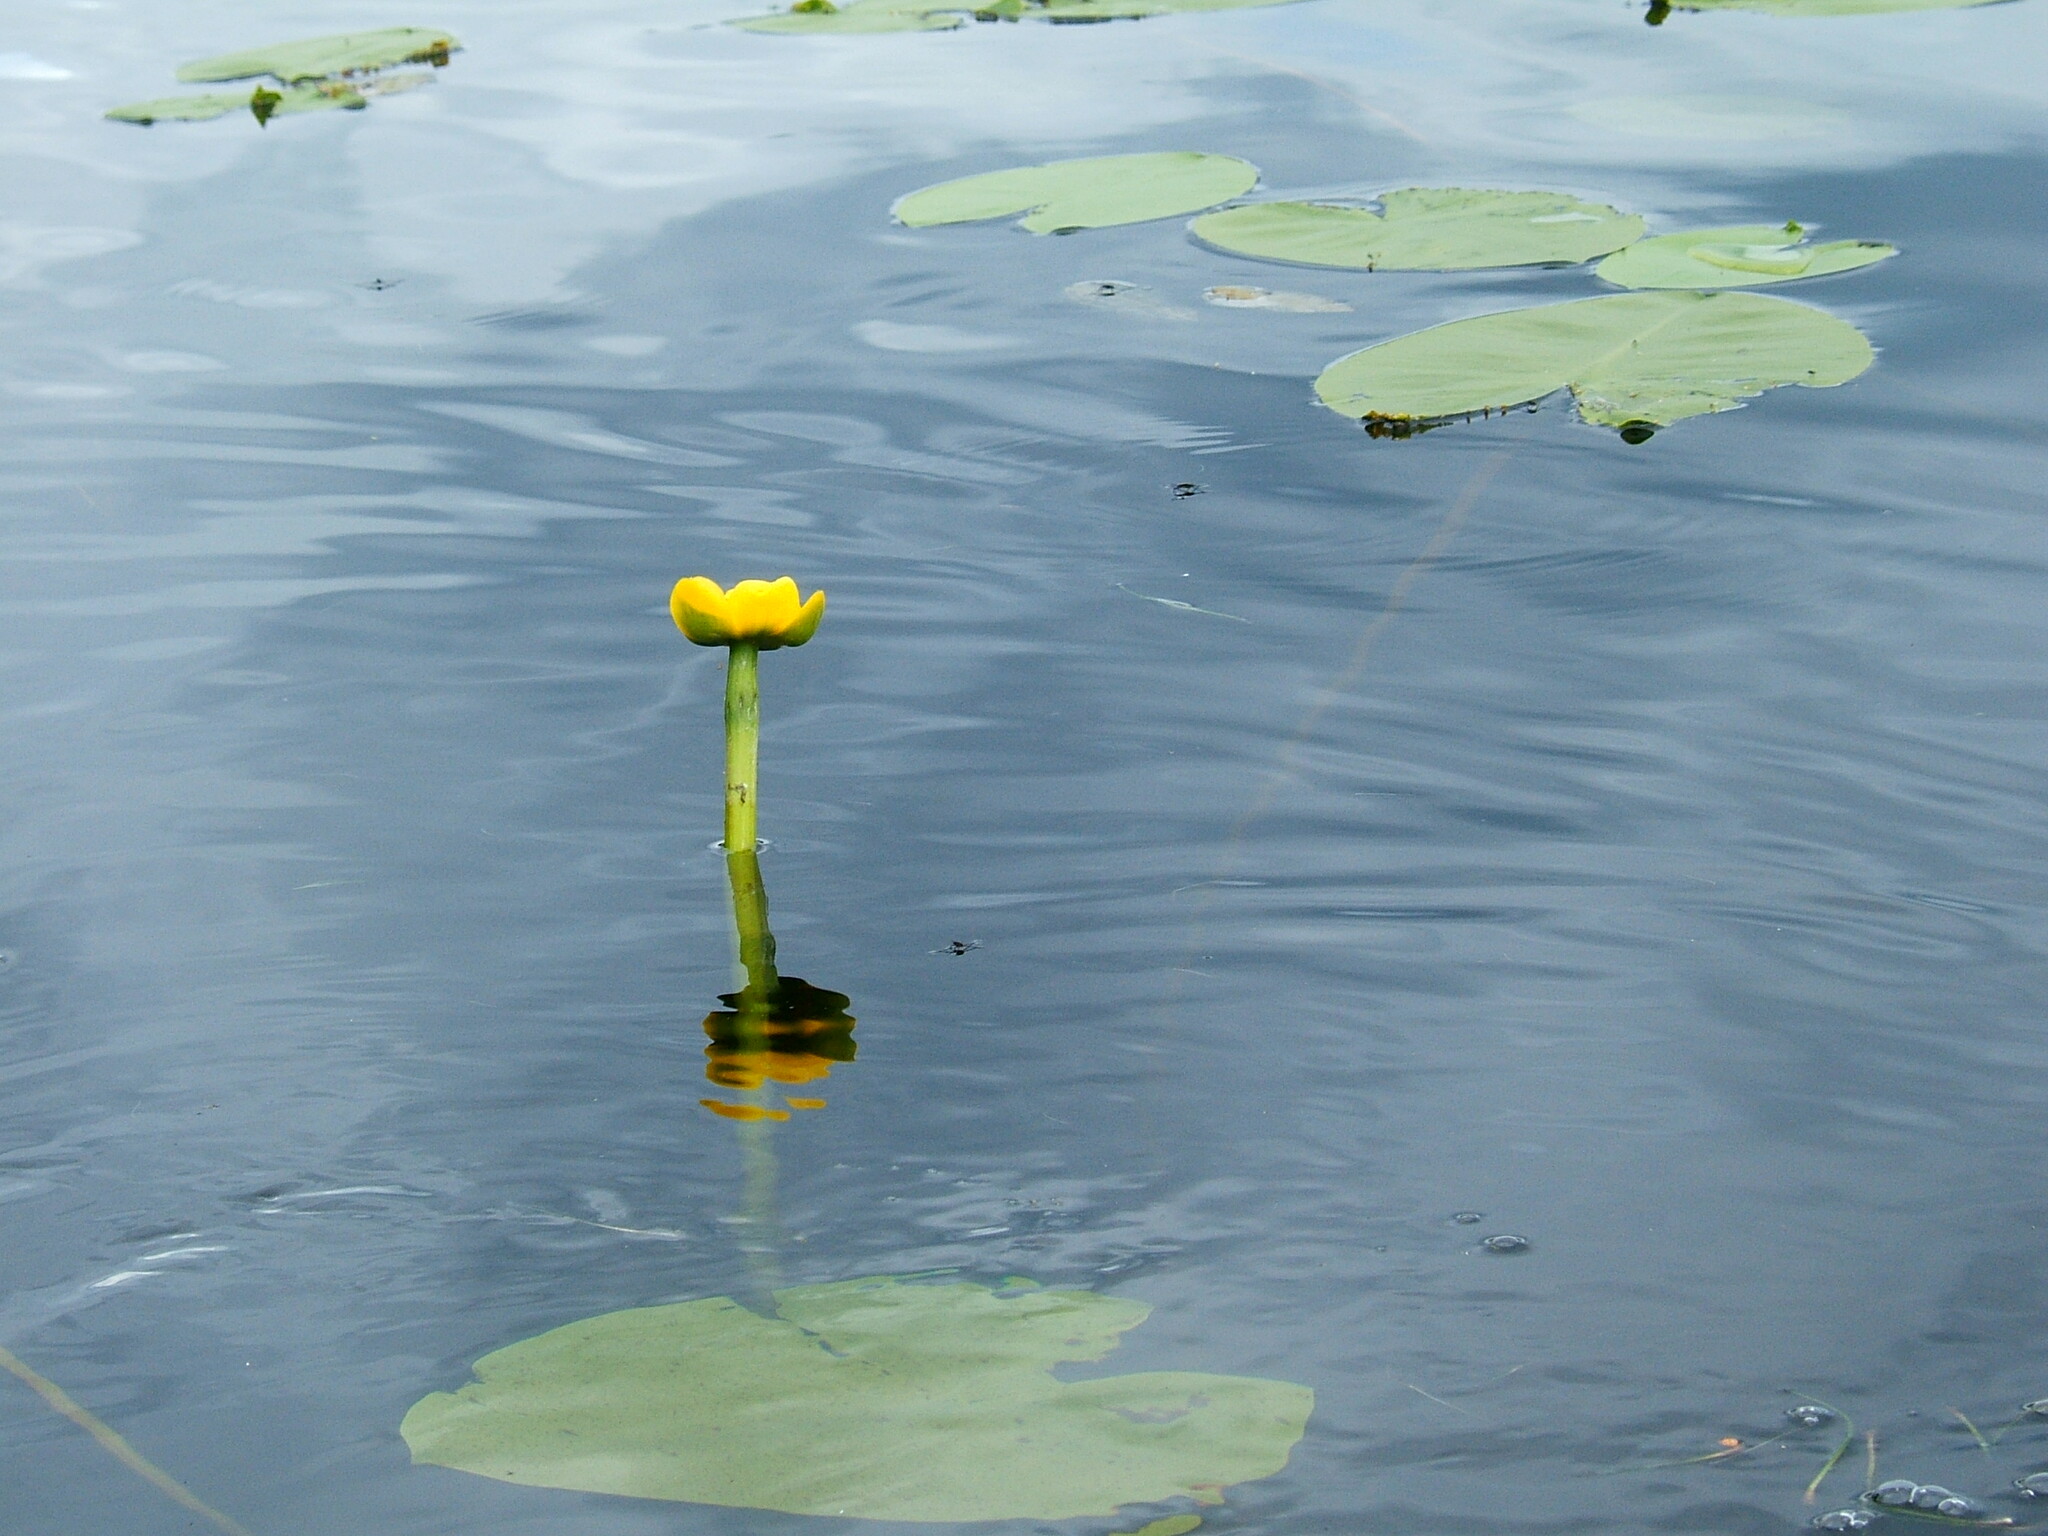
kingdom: Plantae
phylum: Tracheophyta
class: Magnoliopsida
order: Nymphaeales
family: Nymphaeaceae
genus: Nuphar
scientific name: Nuphar lutea
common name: Yellow water-lily
